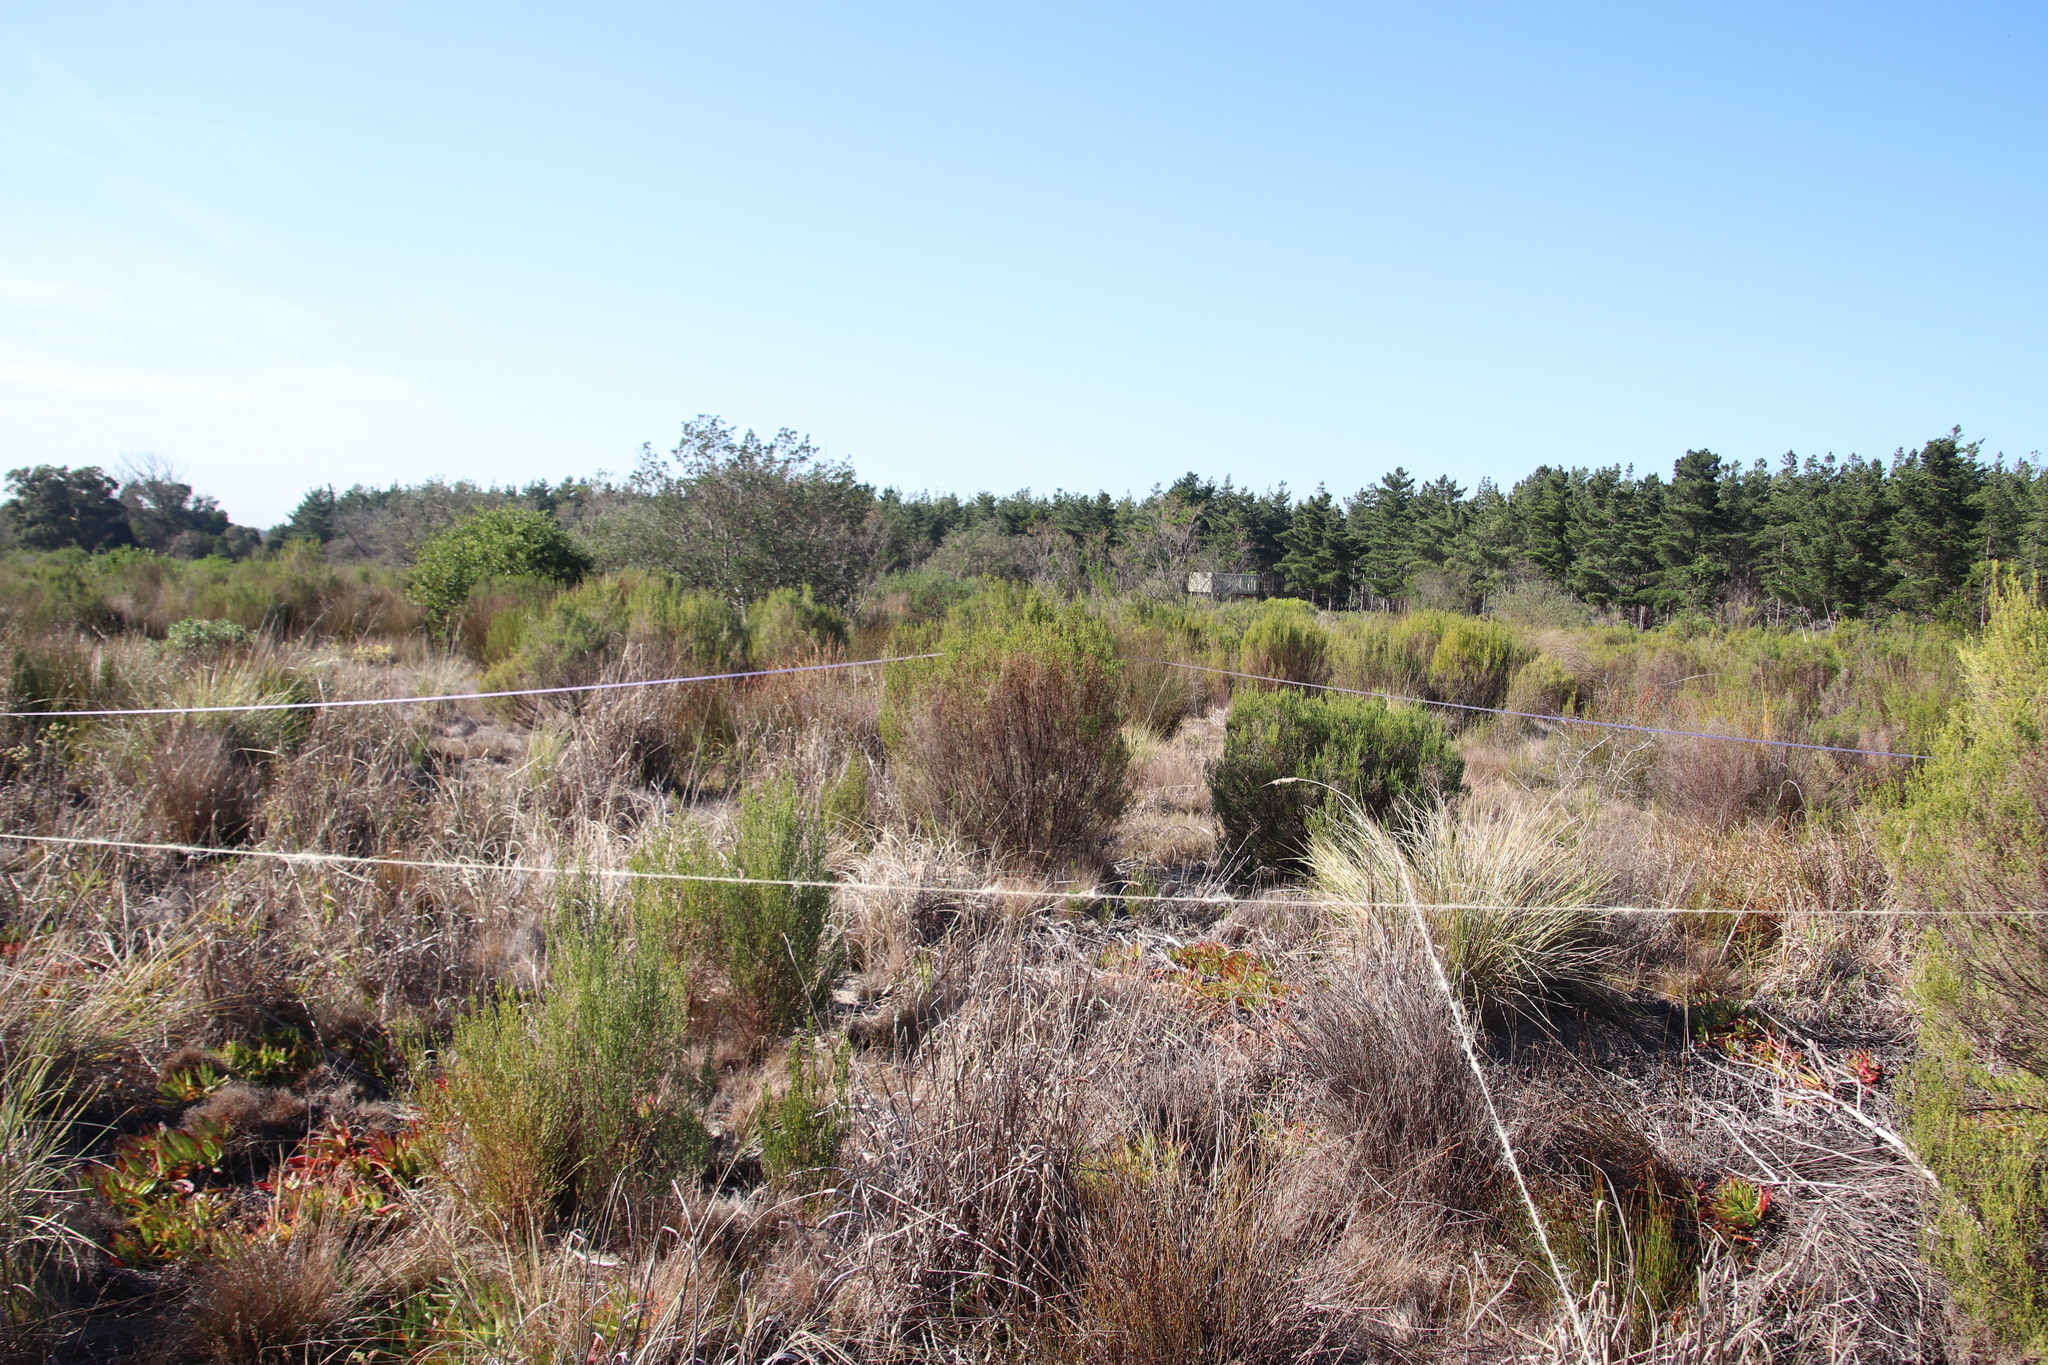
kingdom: Plantae
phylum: Tracheophyta
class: Liliopsida
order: Poales
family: Poaceae
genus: Pseudopentameris
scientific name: Pseudopentameris macrantha
